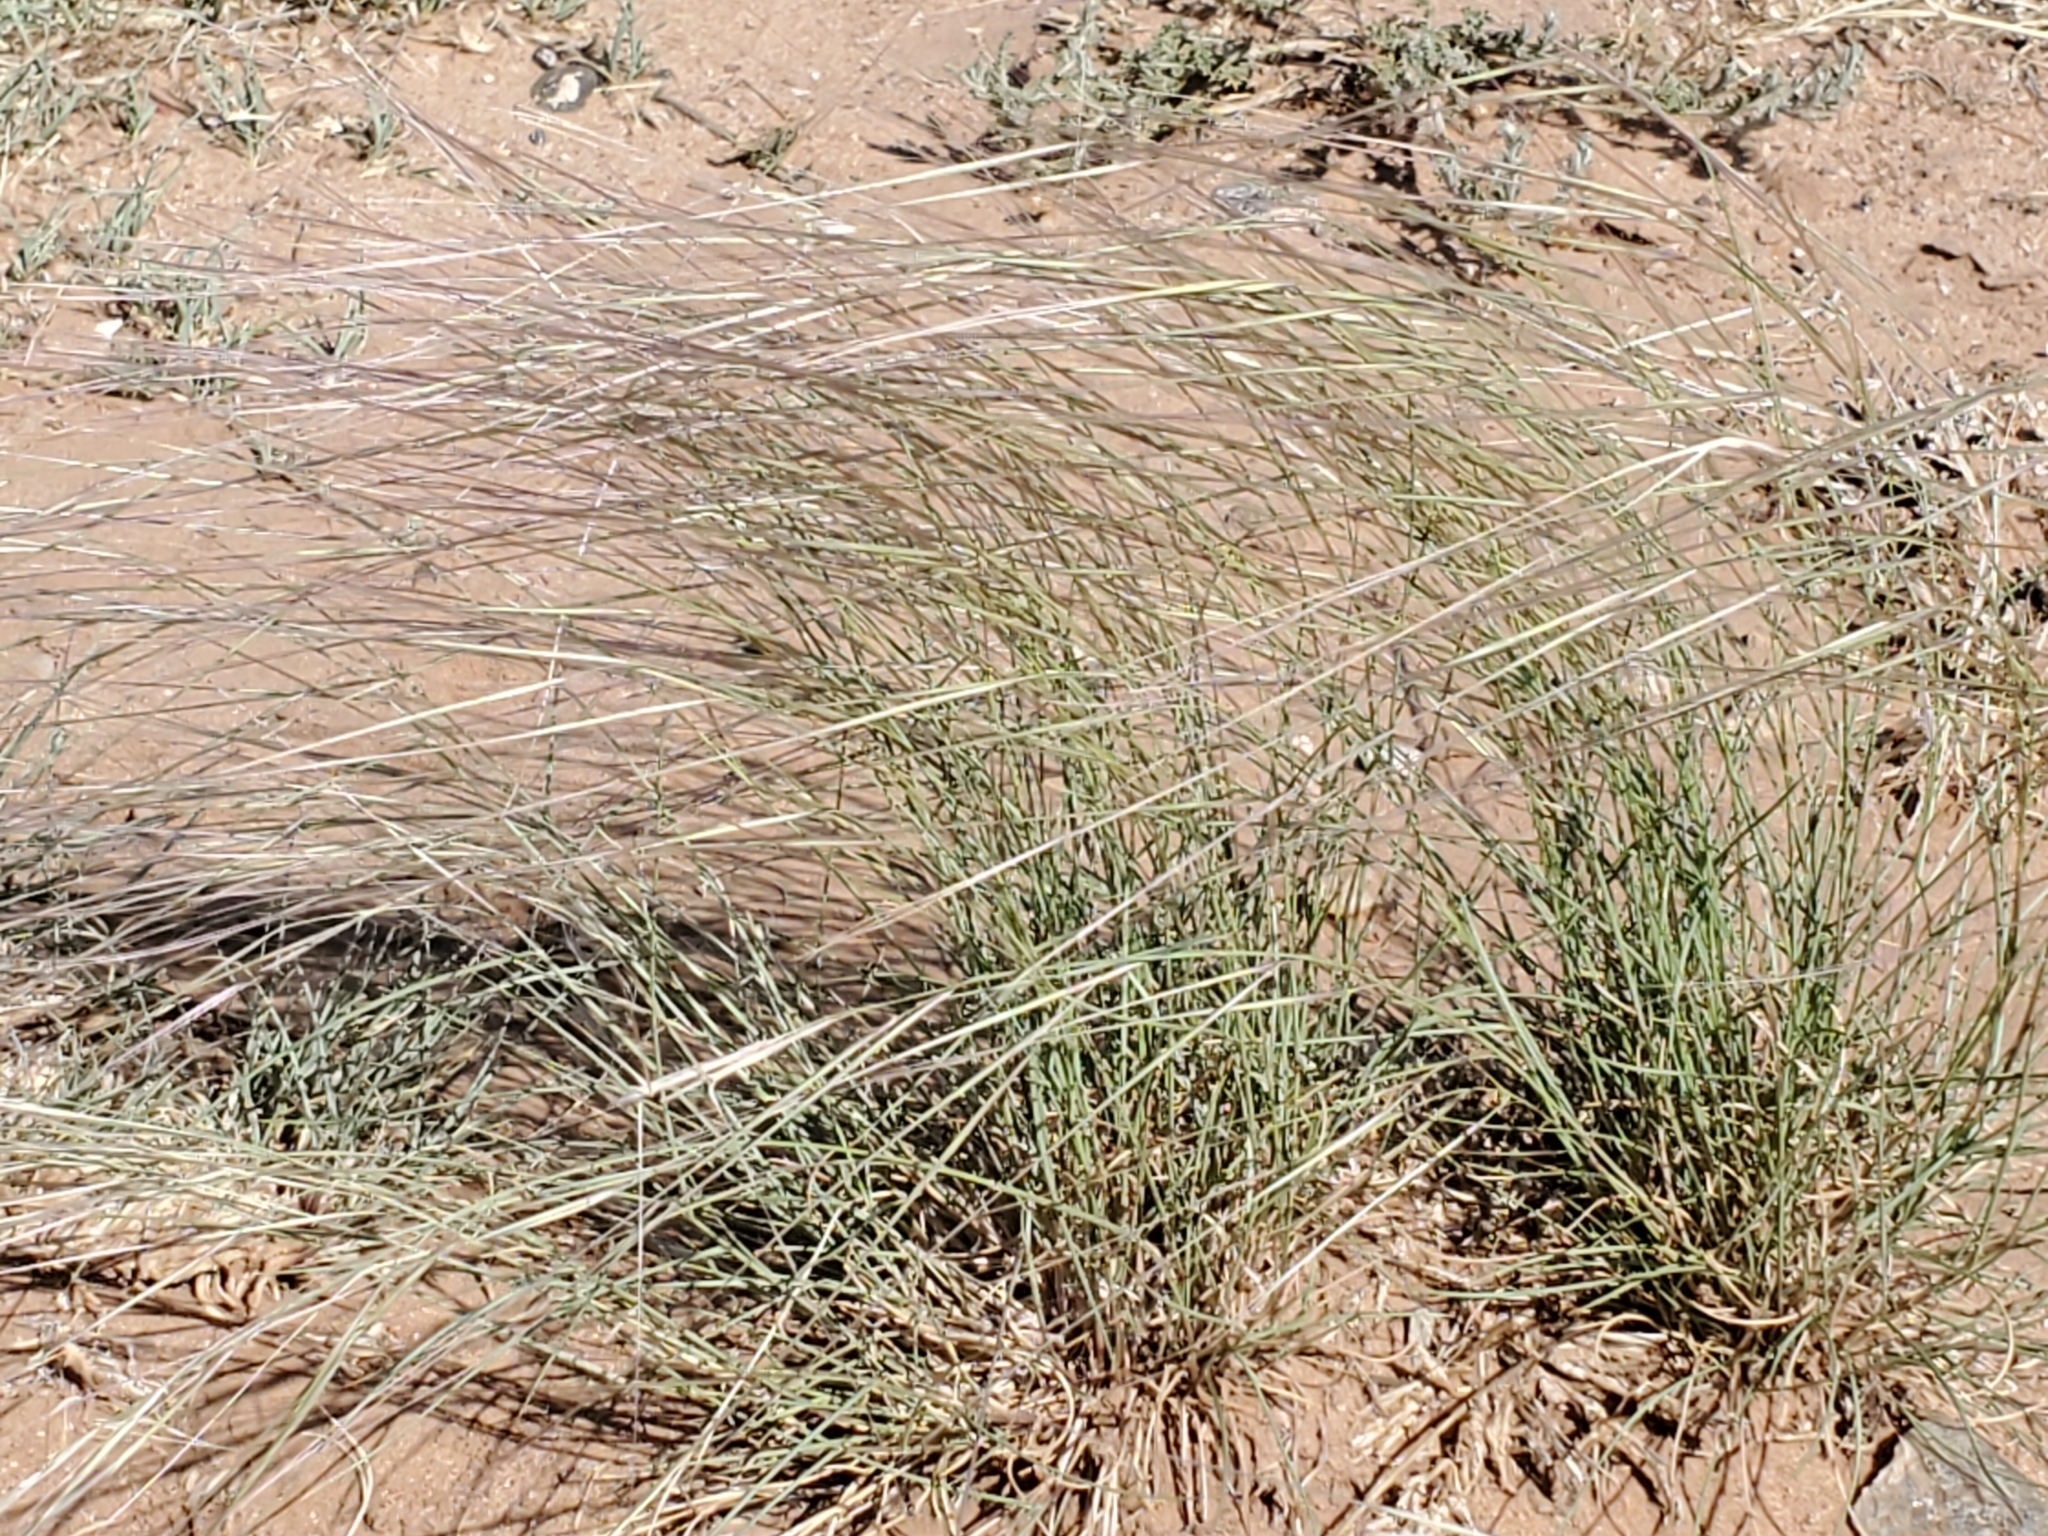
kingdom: Plantae
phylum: Tracheophyta
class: Liliopsida
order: Poales
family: Poaceae
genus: Hesperostipa
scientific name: Hesperostipa comata
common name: Needle-and-thread grass
